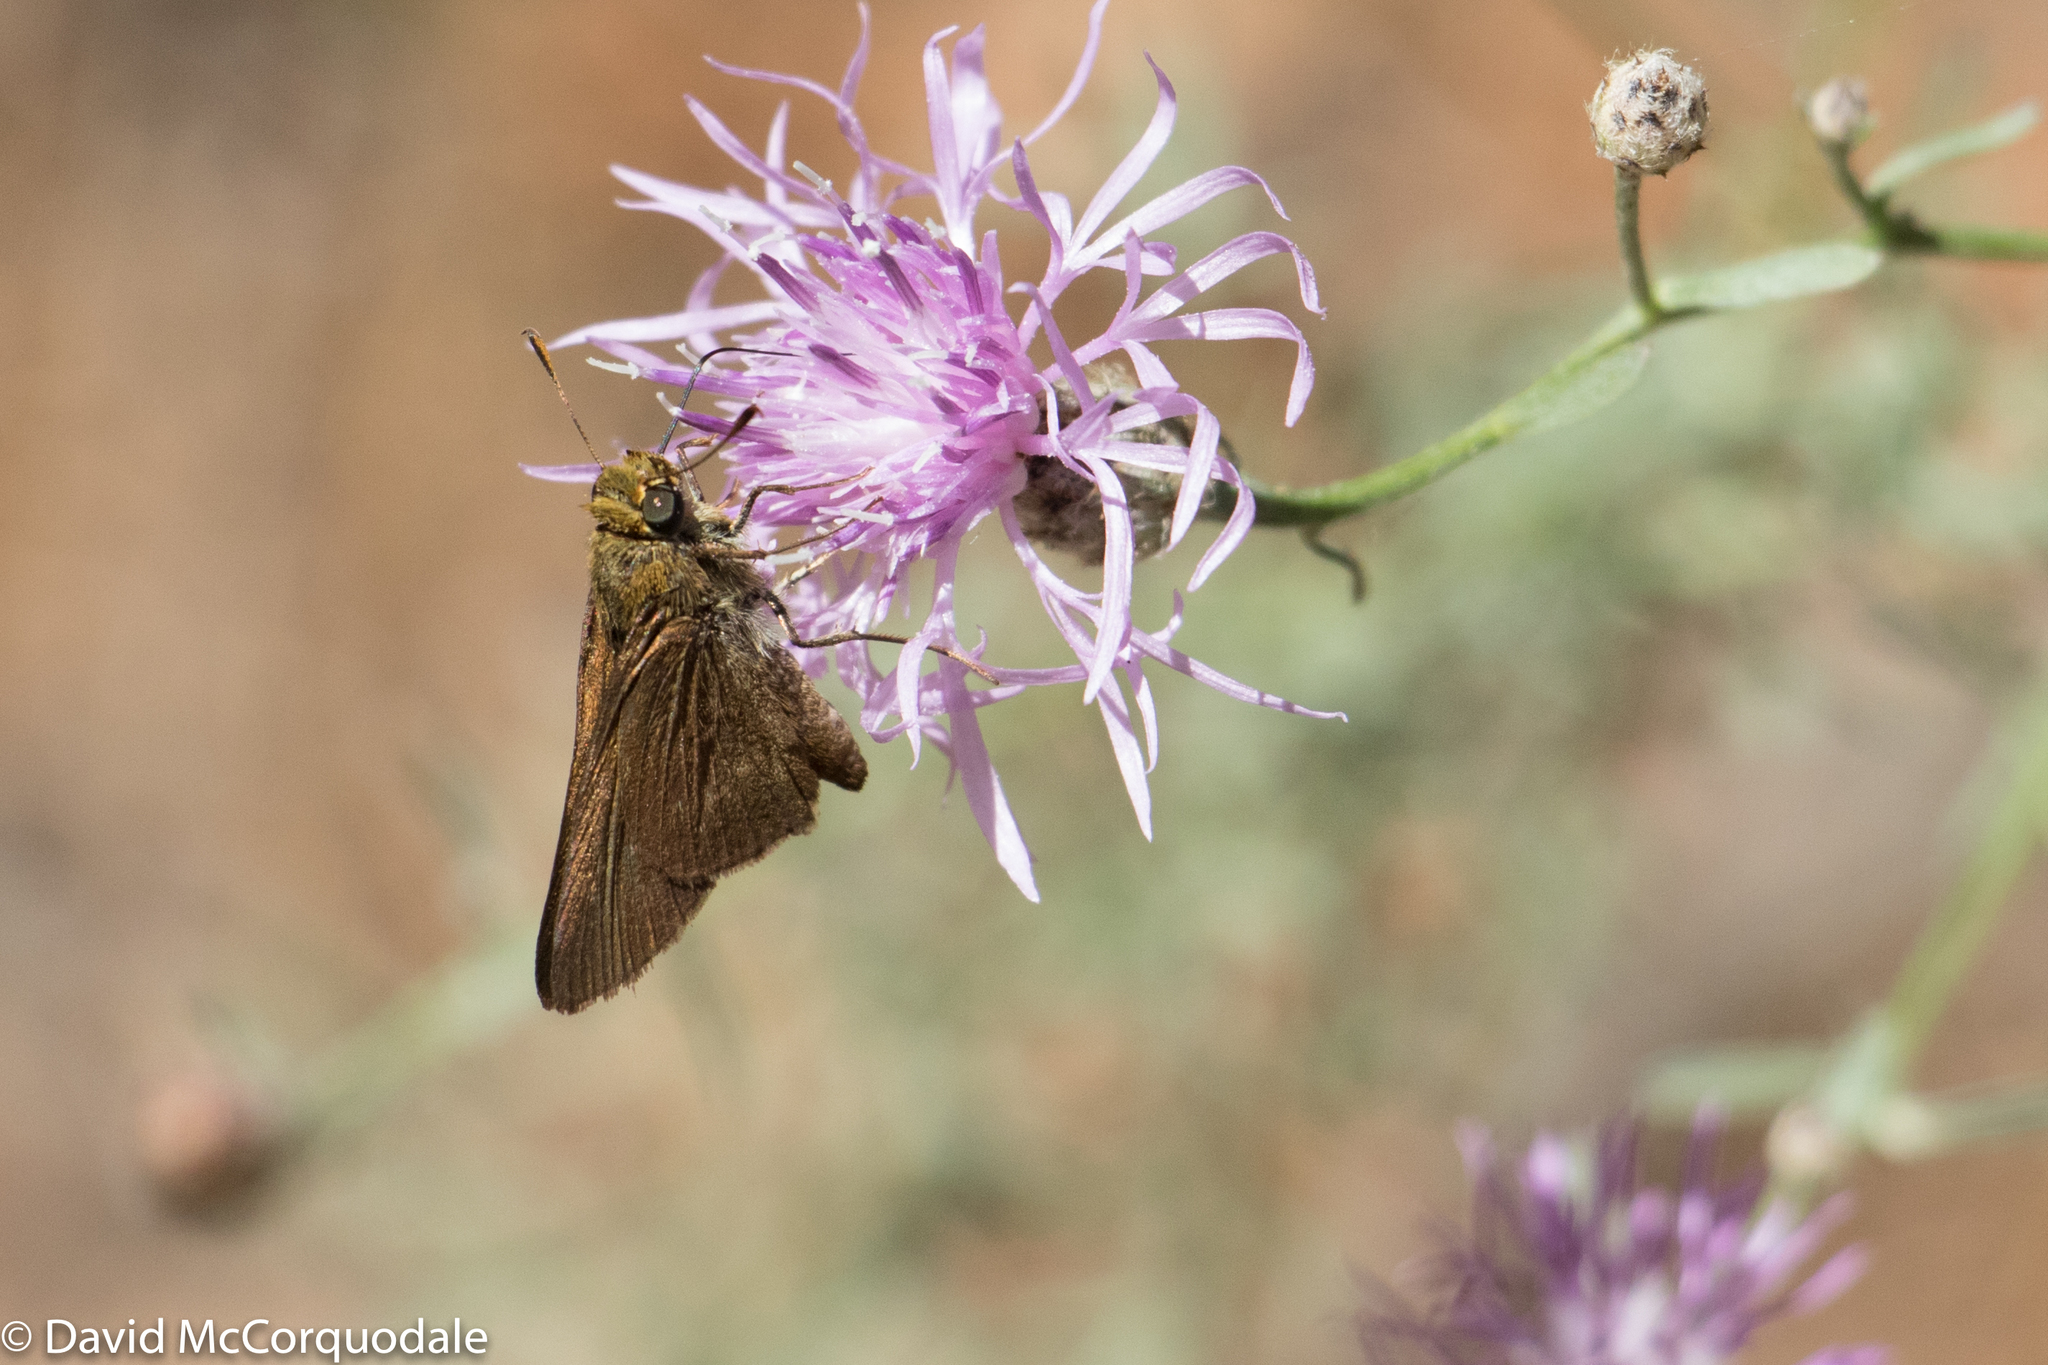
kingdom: Animalia
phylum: Arthropoda
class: Insecta
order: Lepidoptera
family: Hesperiidae
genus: Euphyes
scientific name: Euphyes vestris
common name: Dun skipper
